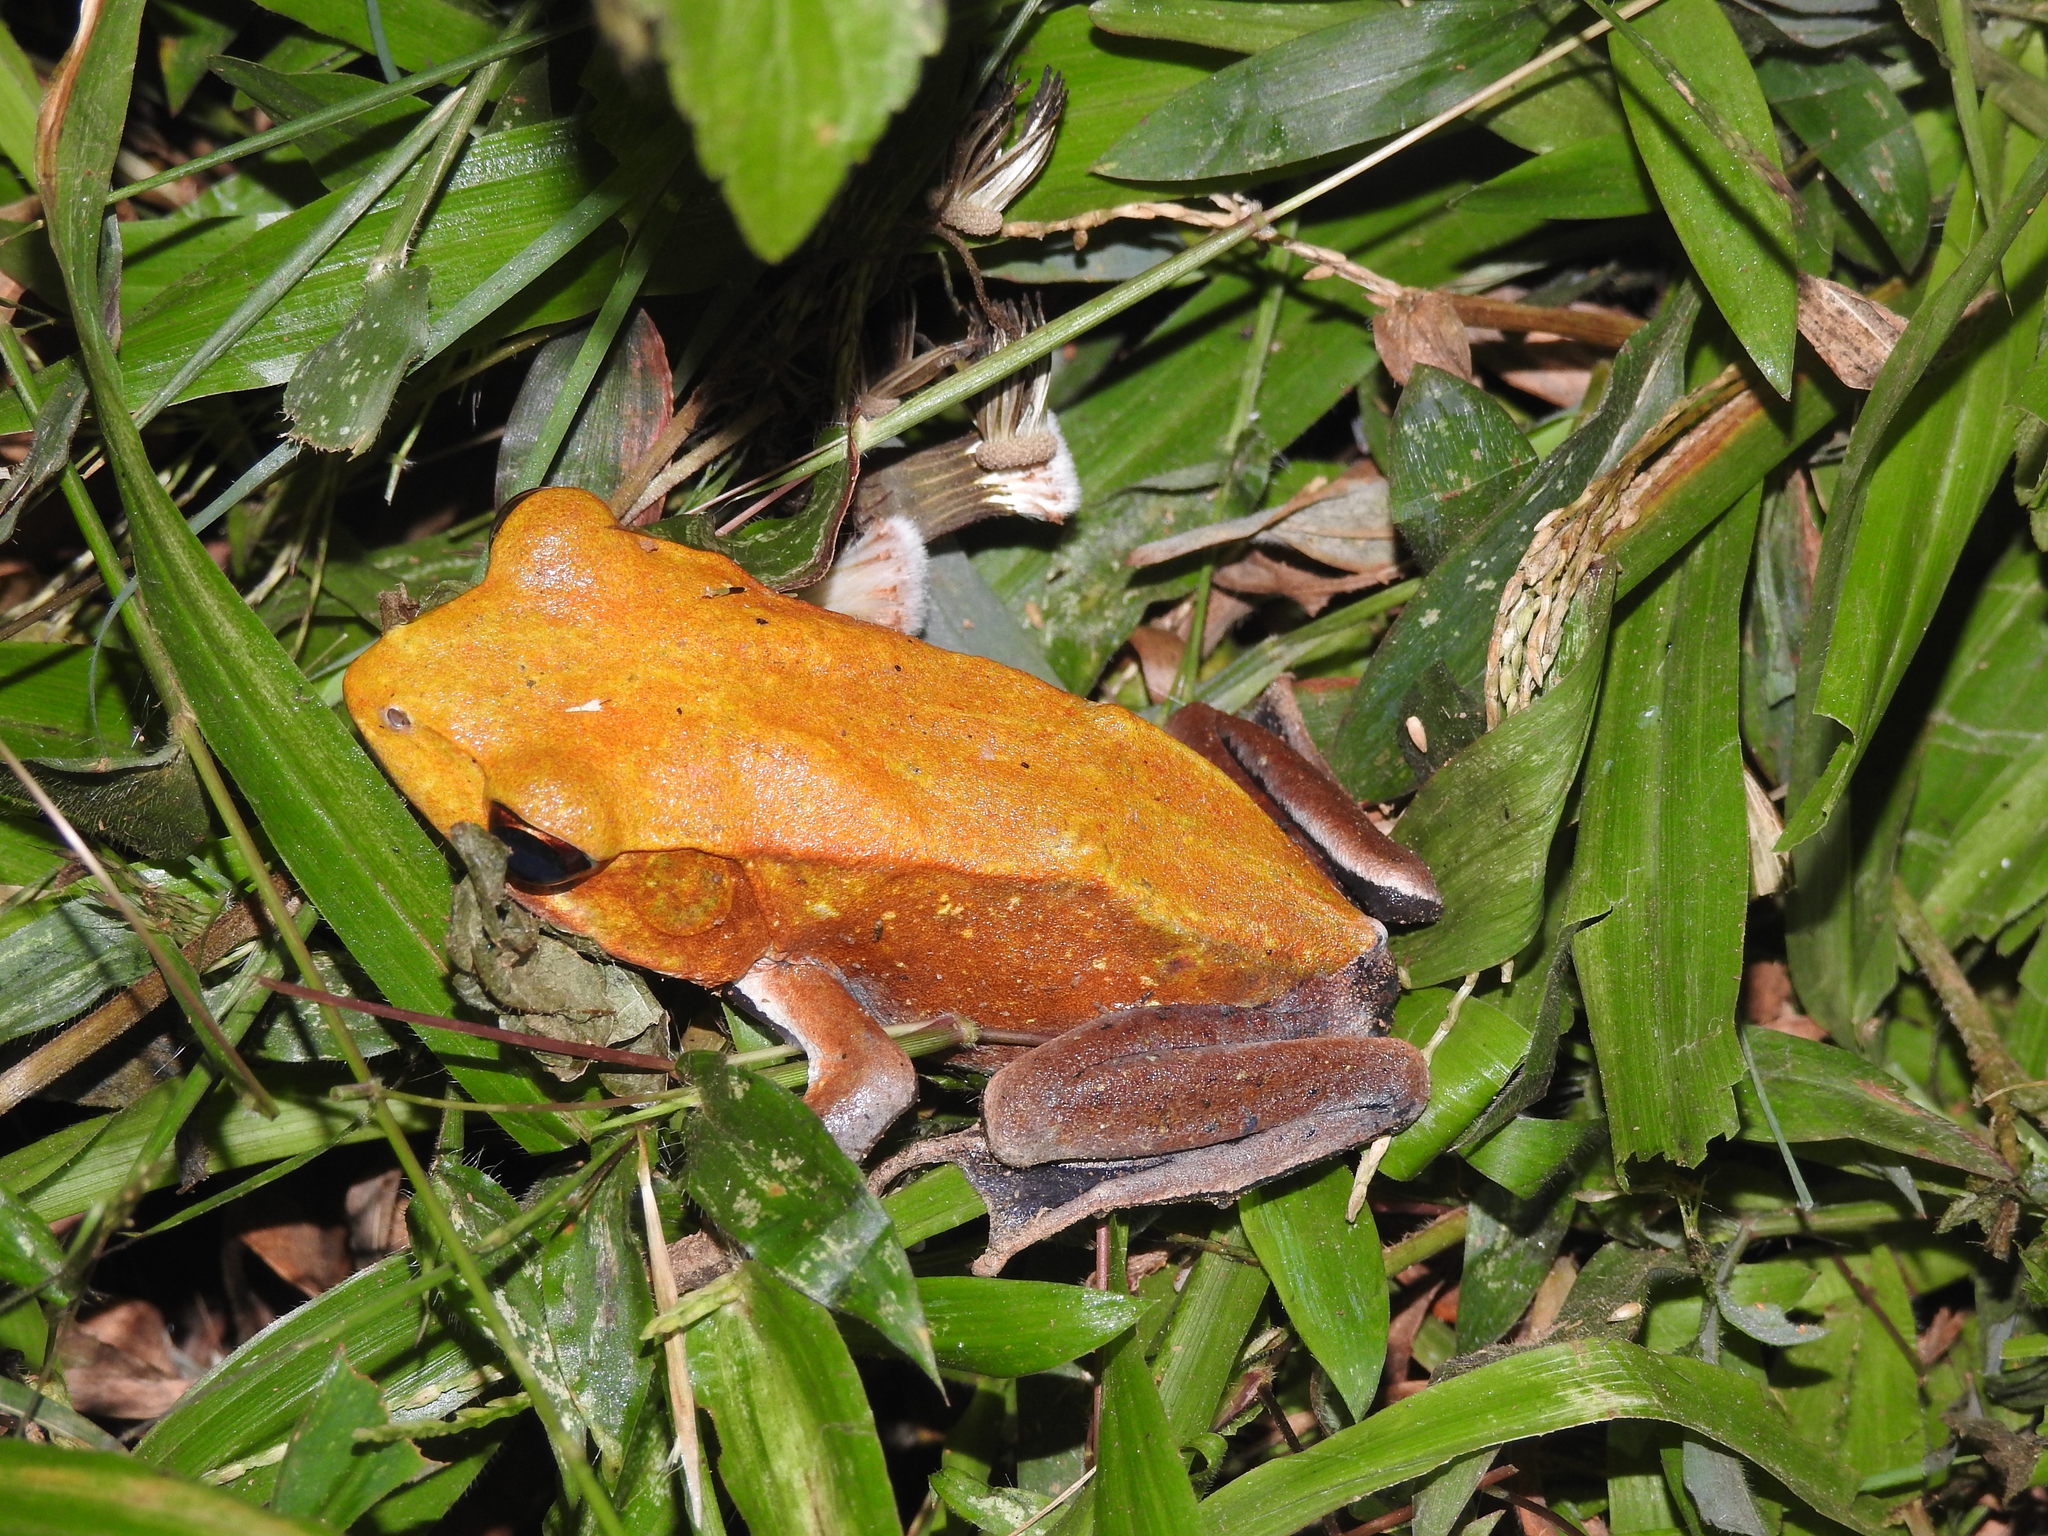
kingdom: Animalia
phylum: Chordata
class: Amphibia
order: Anura
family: Ranidae
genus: Clinotarsus
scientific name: Clinotarsus curtipes
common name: Bicoloured frog
